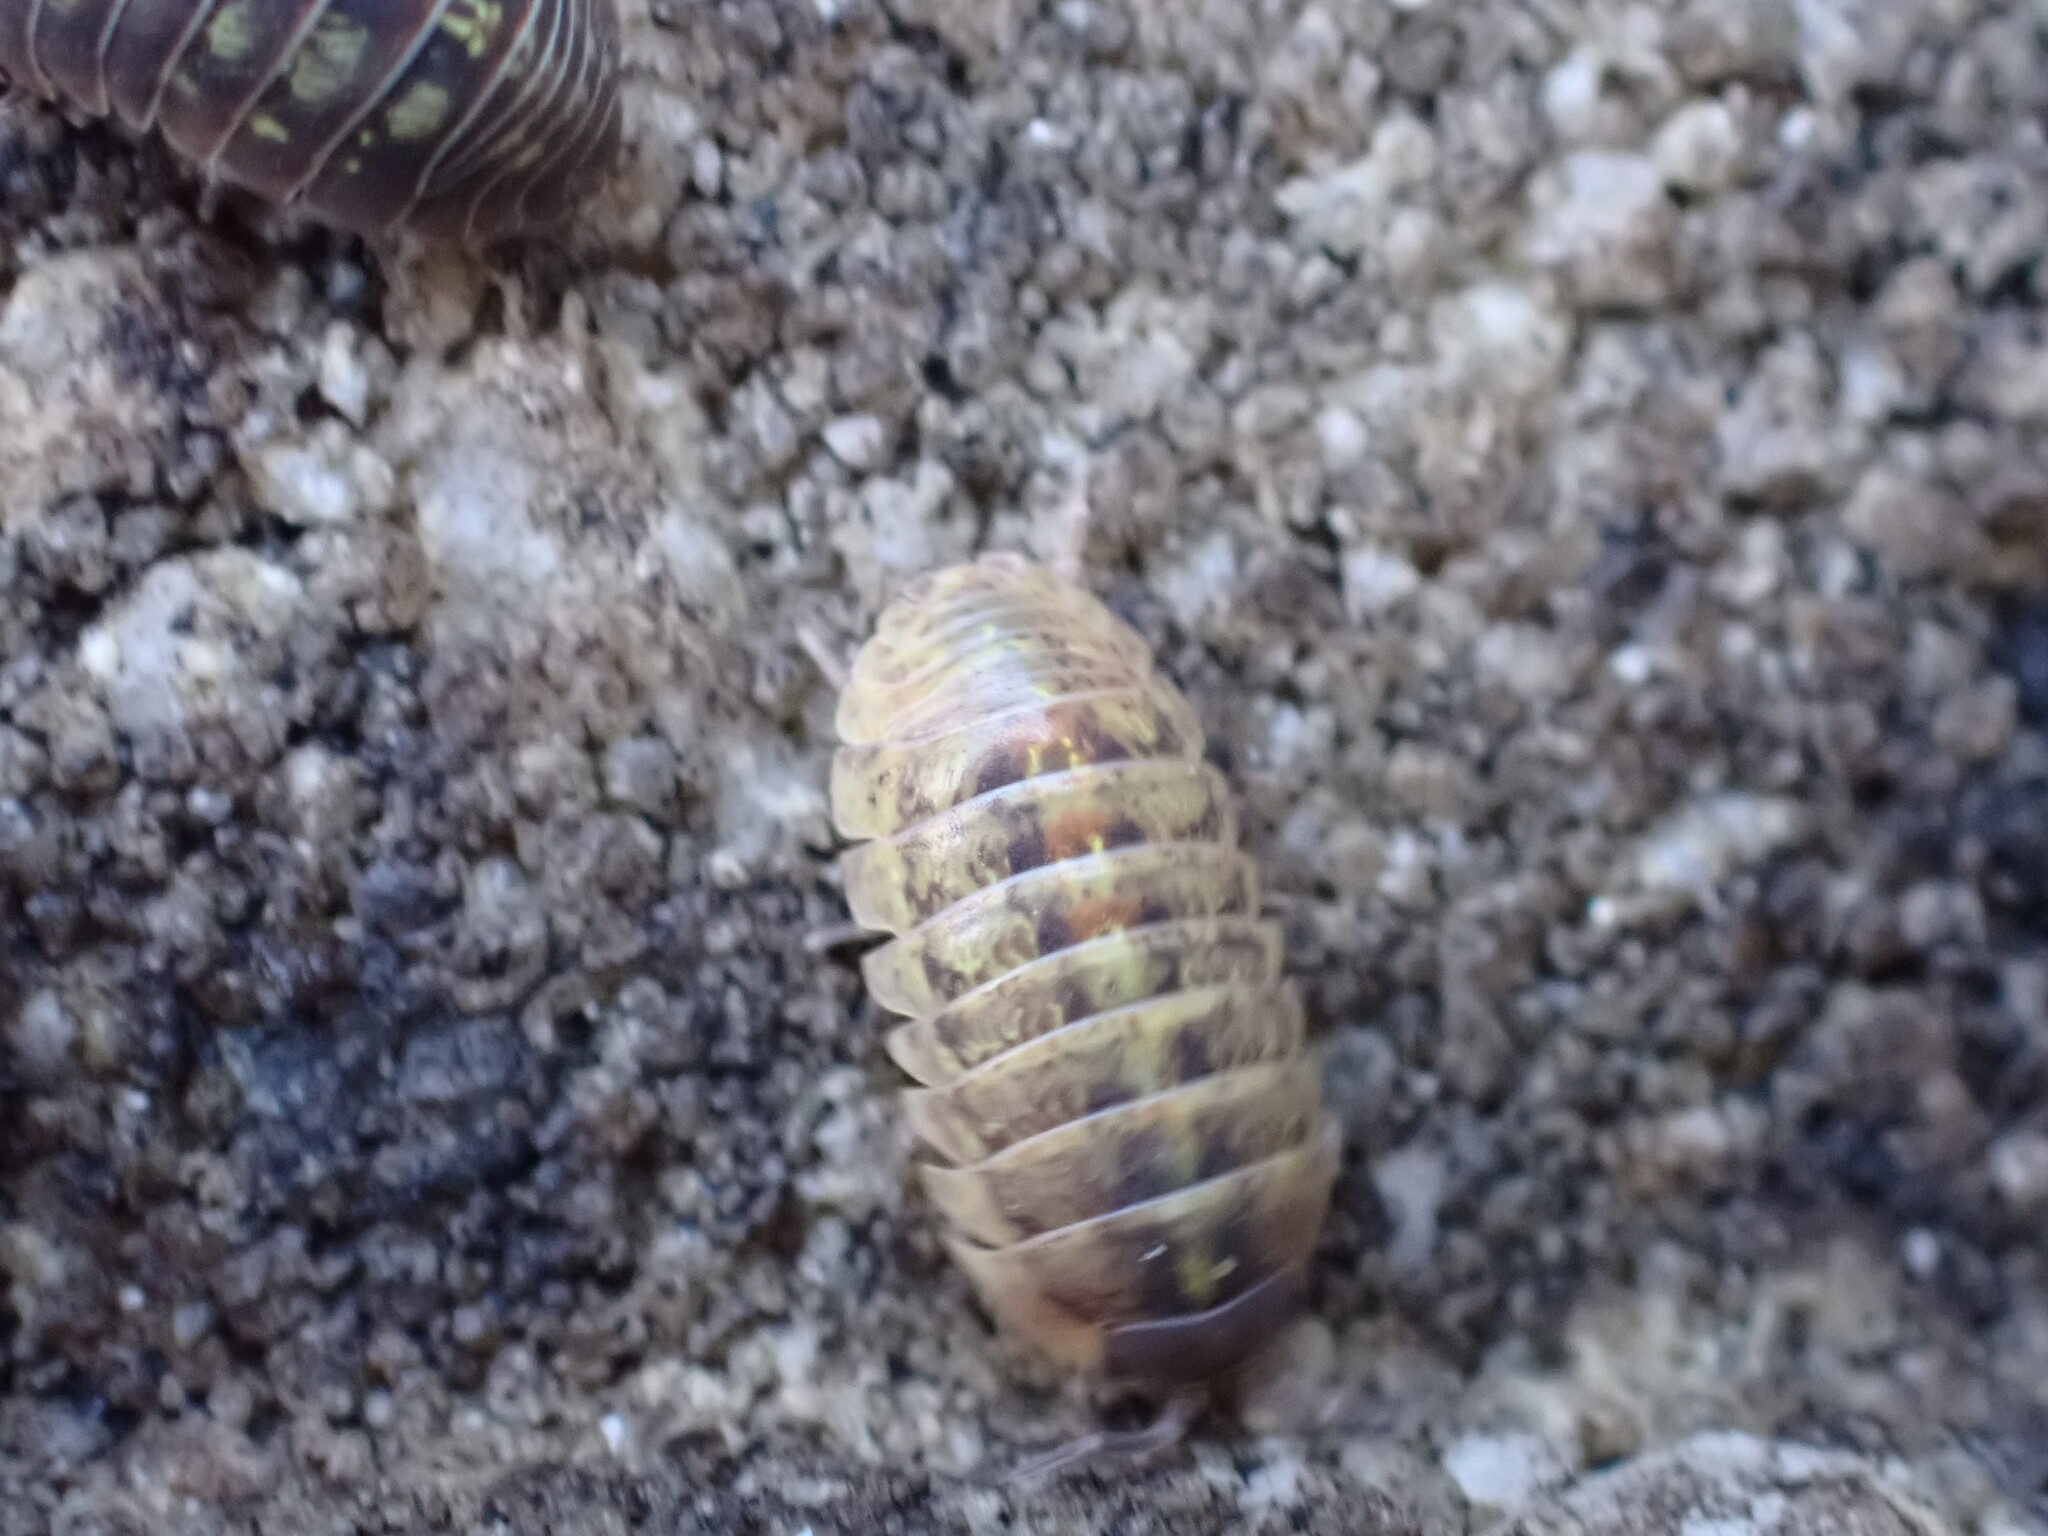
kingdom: Animalia
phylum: Arthropoda
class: Malacostraca
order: Isopoda
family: Armadillidiidae
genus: Armadillidium
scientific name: Armadillidium vulgare
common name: Common pill woodlouse
